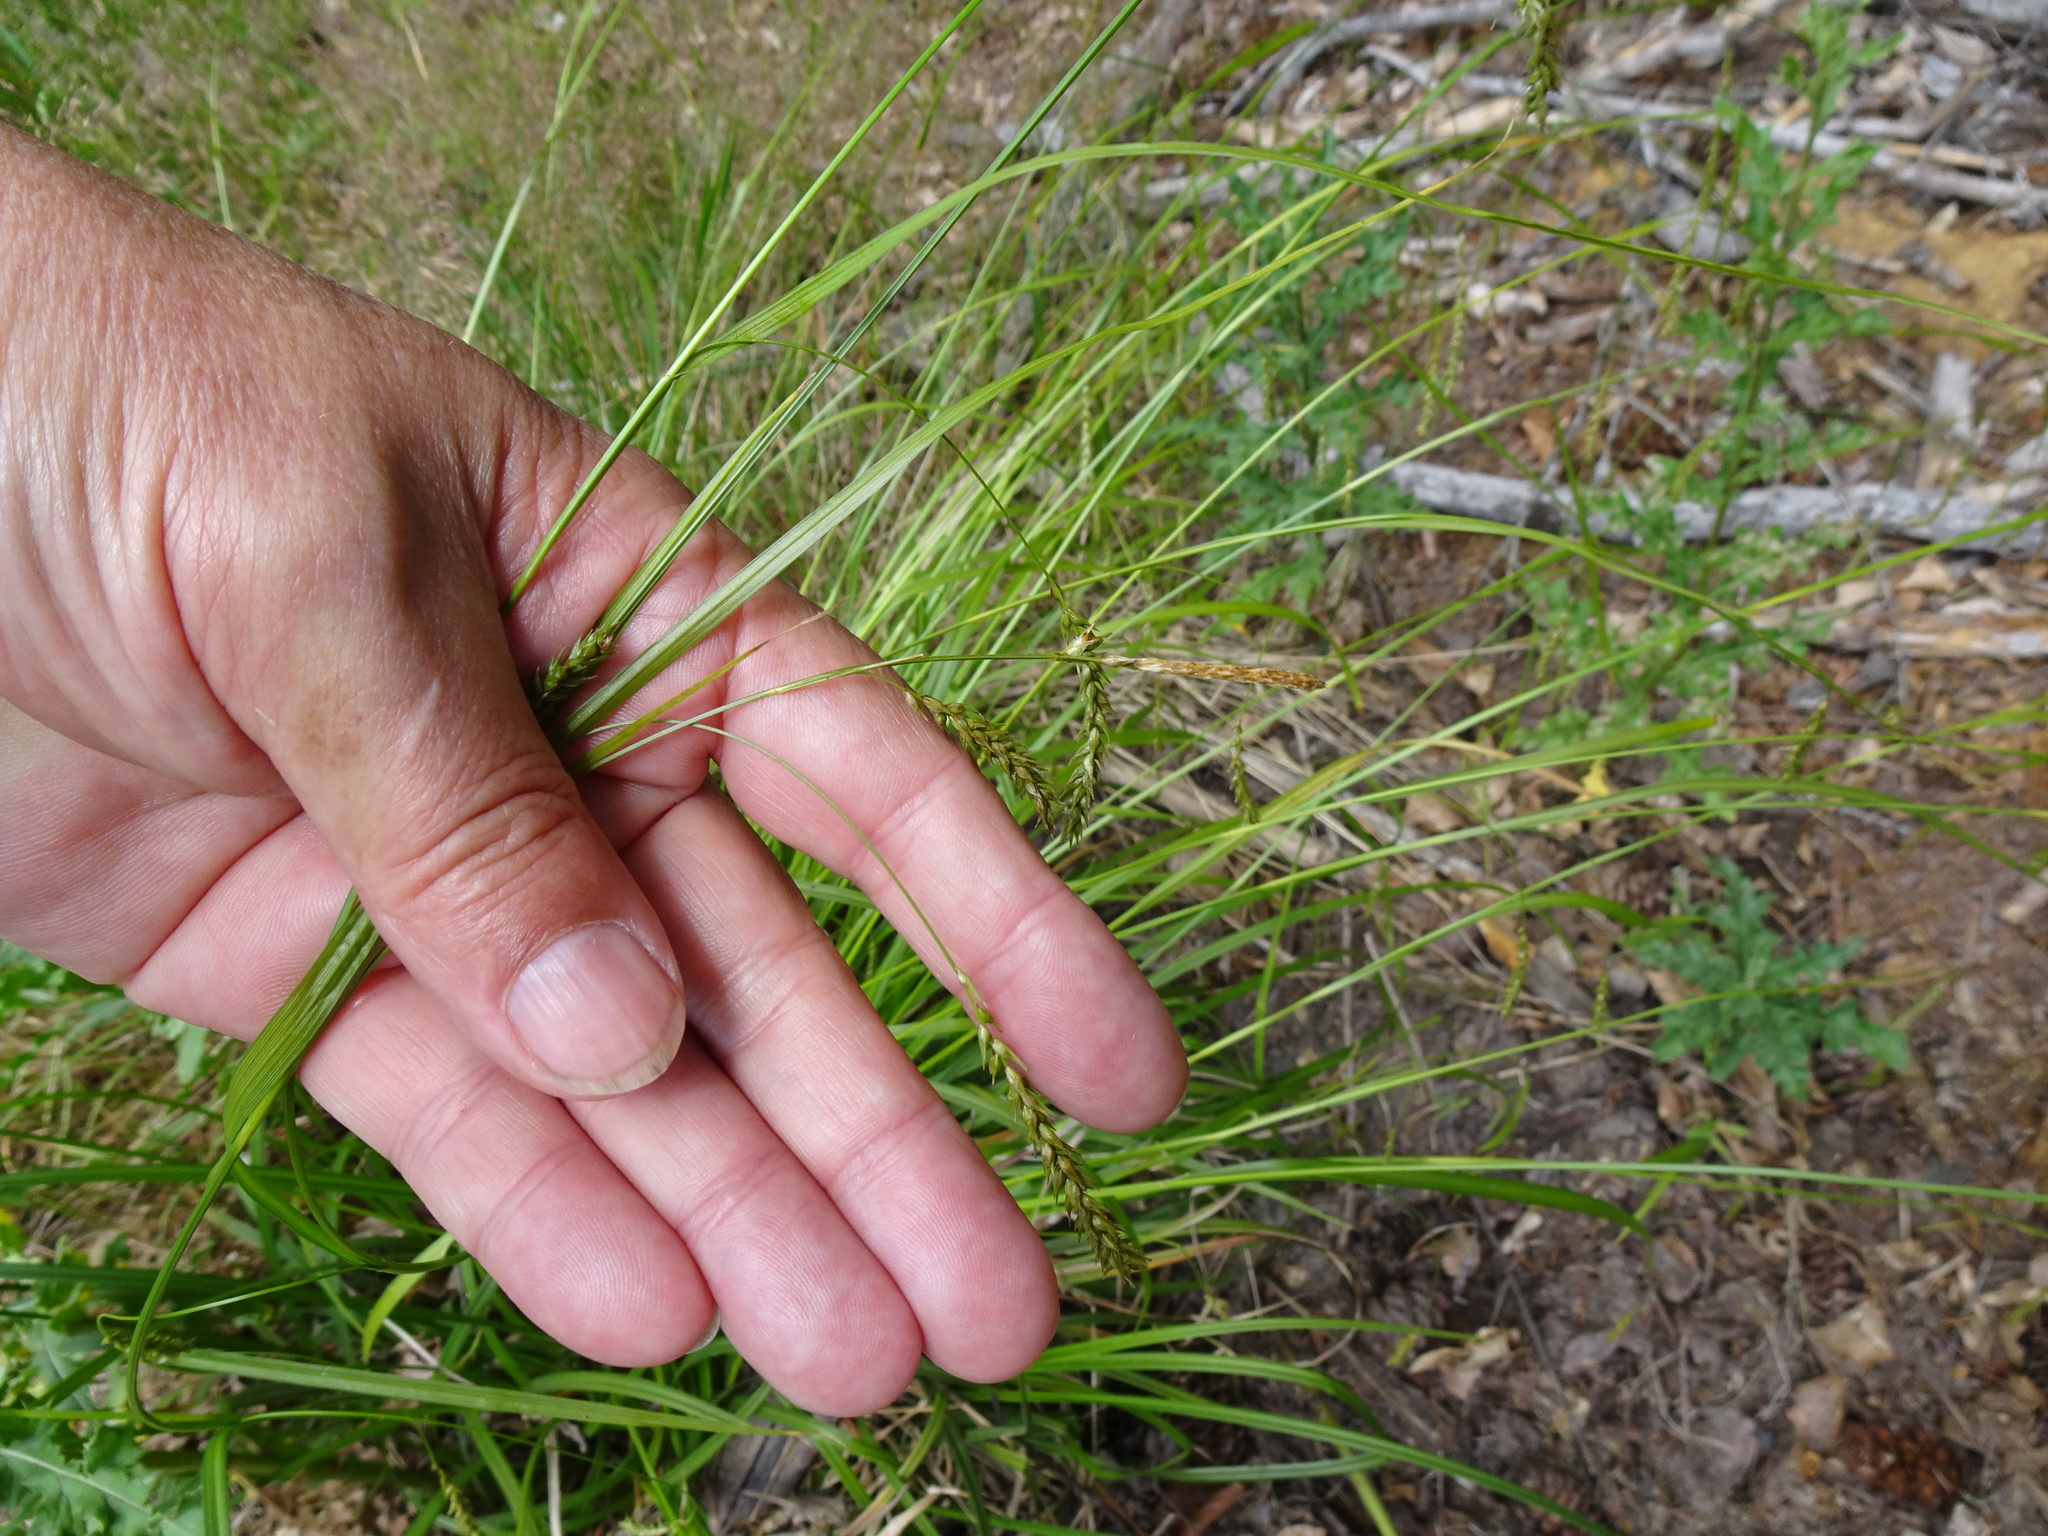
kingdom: Plantae
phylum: Tracheophyta
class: Liliopsida
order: Poales
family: Cyperaceae
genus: Carex
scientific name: Carex sylvatica
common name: Wood-sedge
